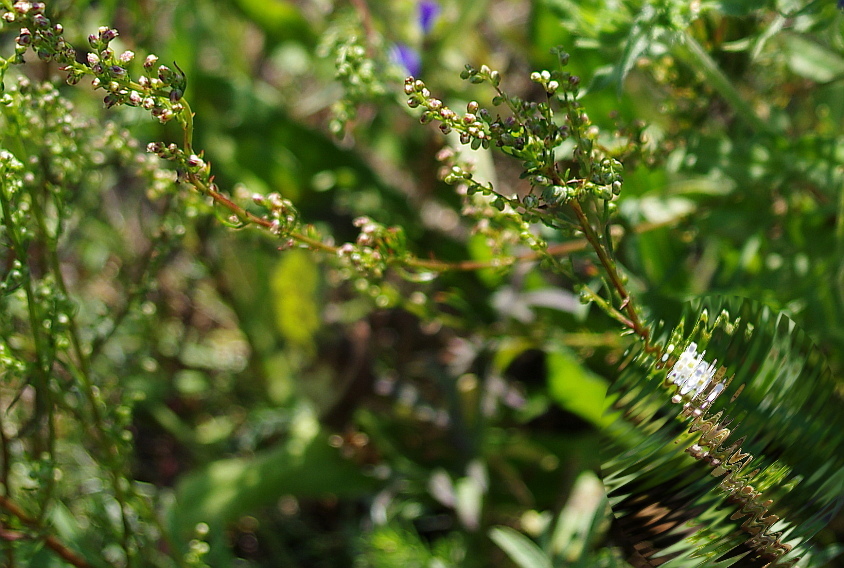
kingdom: Plantae
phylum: Tracheophyta
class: Magnoliopsida
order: Asterales
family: Asteraceae
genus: Artemisia
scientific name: Artemisia campestris
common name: Field wormwood
